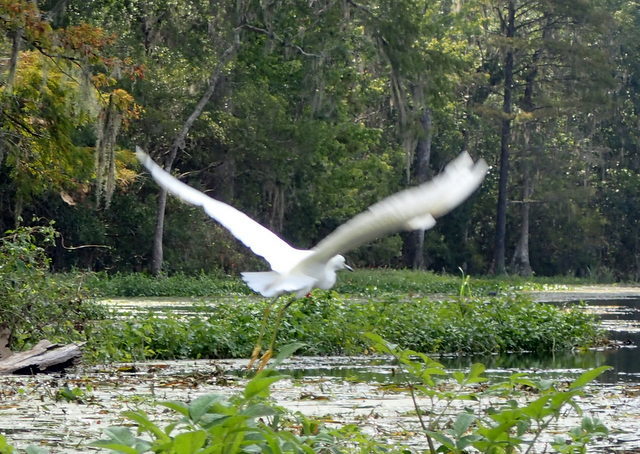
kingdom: Animalia
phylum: Chordata
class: Aves
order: Pelecaniformes
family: Ardeidae
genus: Egretta
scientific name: Egretta thula
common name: Snowy egret
